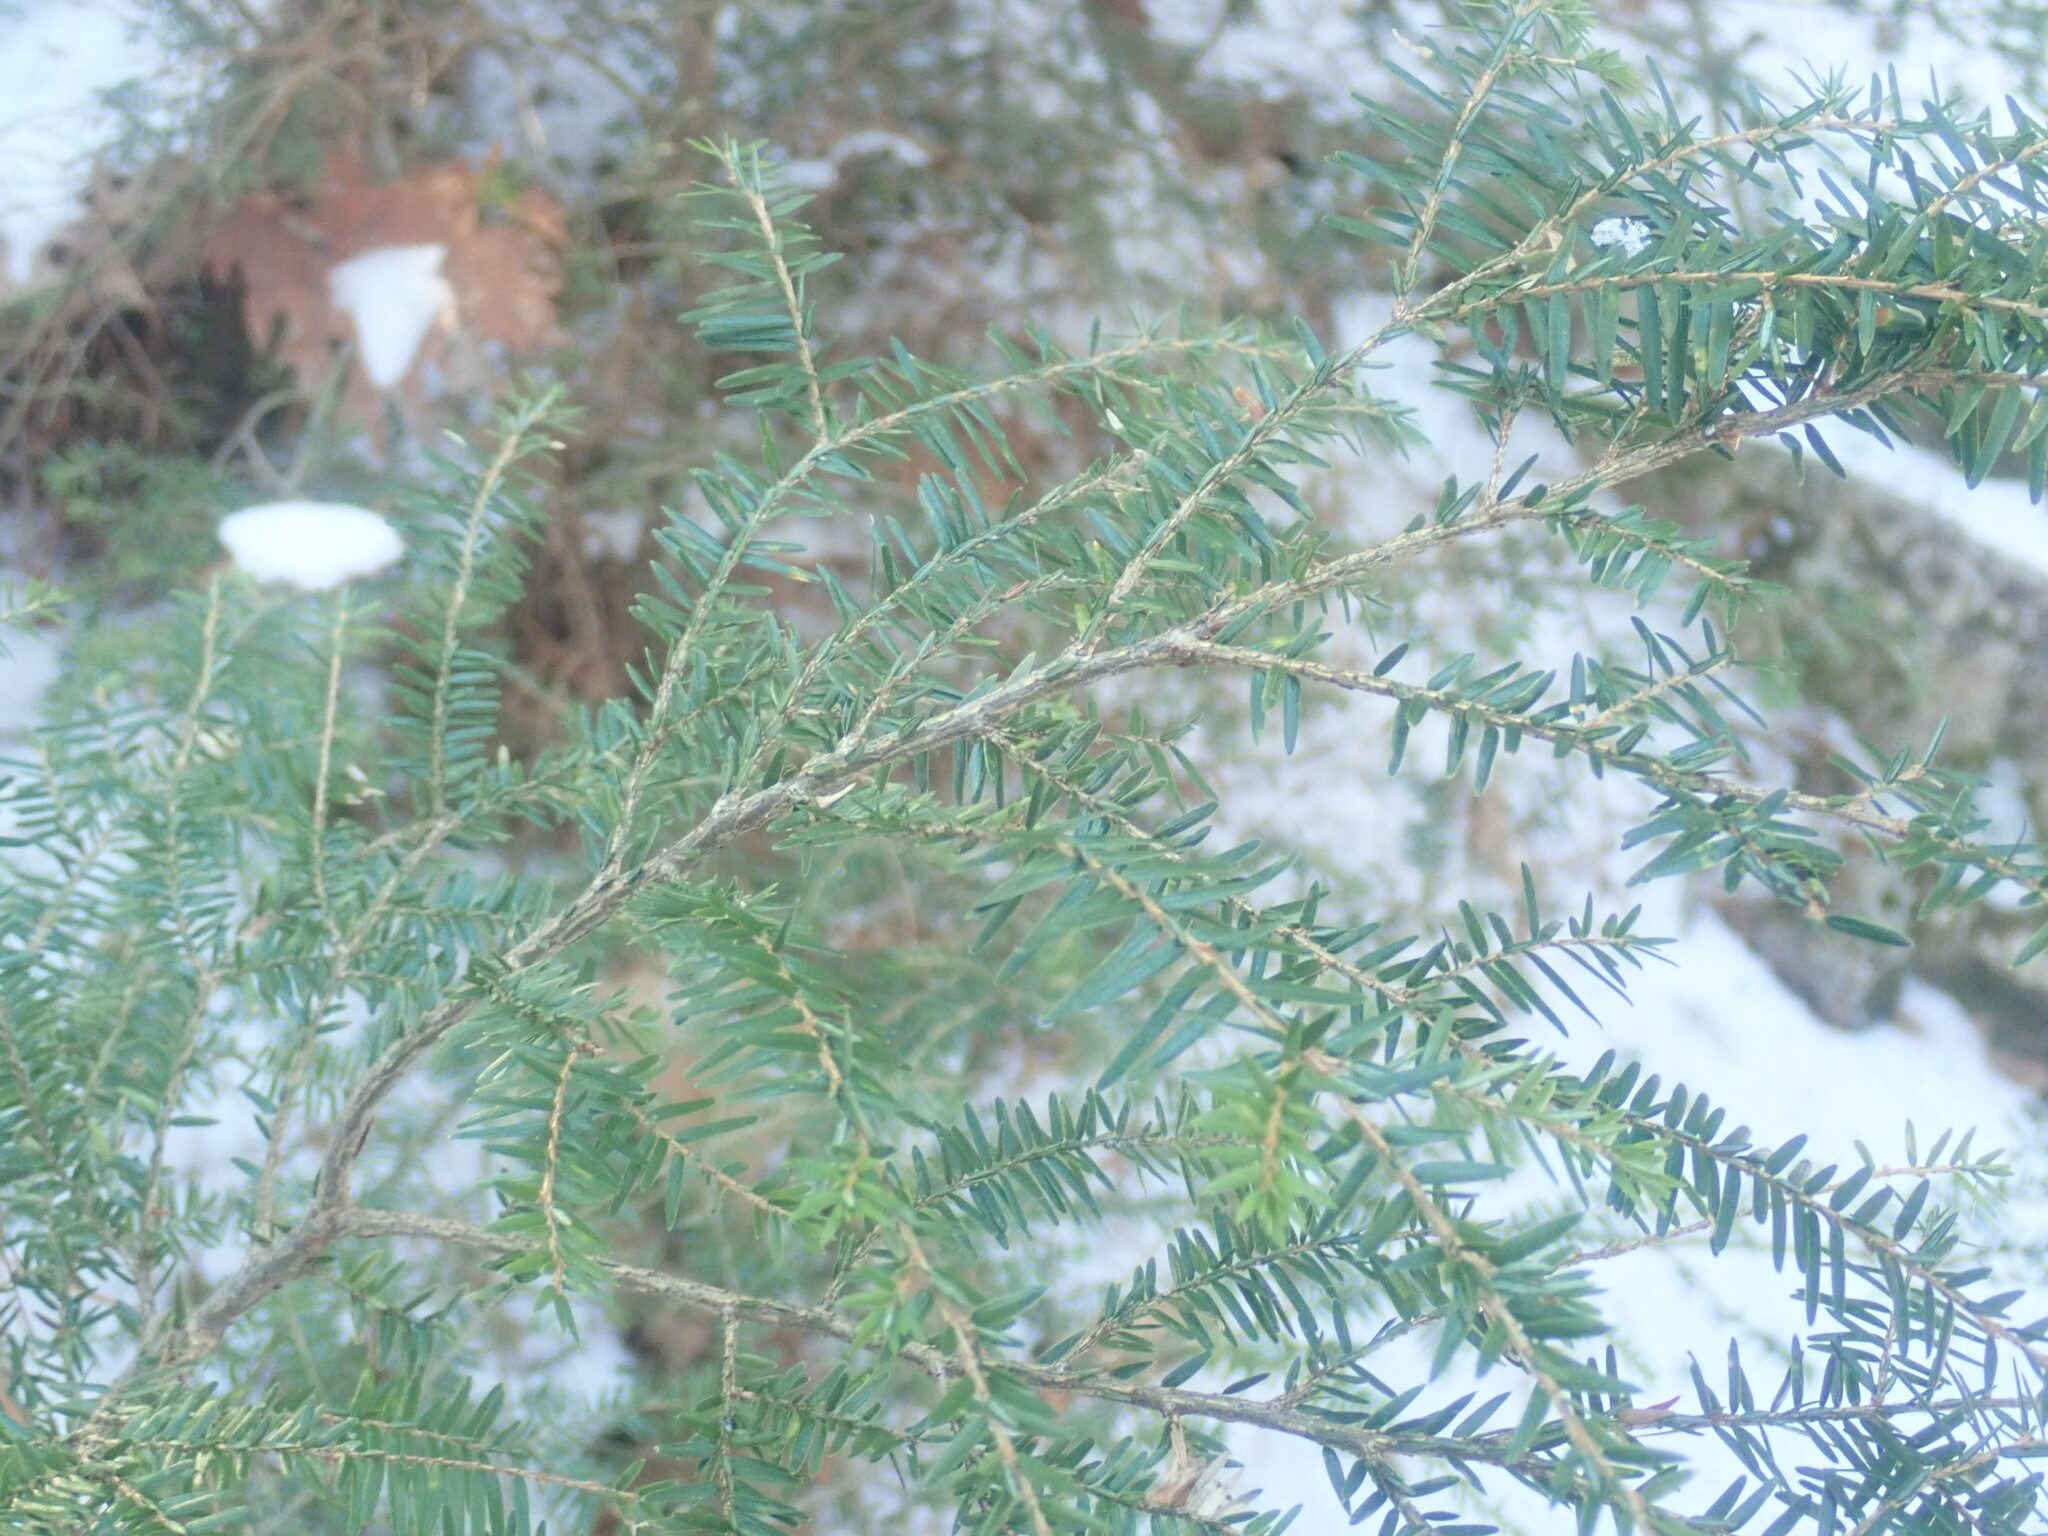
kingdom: Plantae
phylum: Tracheophyta
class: Pinopsida
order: Pinales
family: Pinaceae
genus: Tsuga
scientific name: Tsuga canadensis
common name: Eastern hemlock
